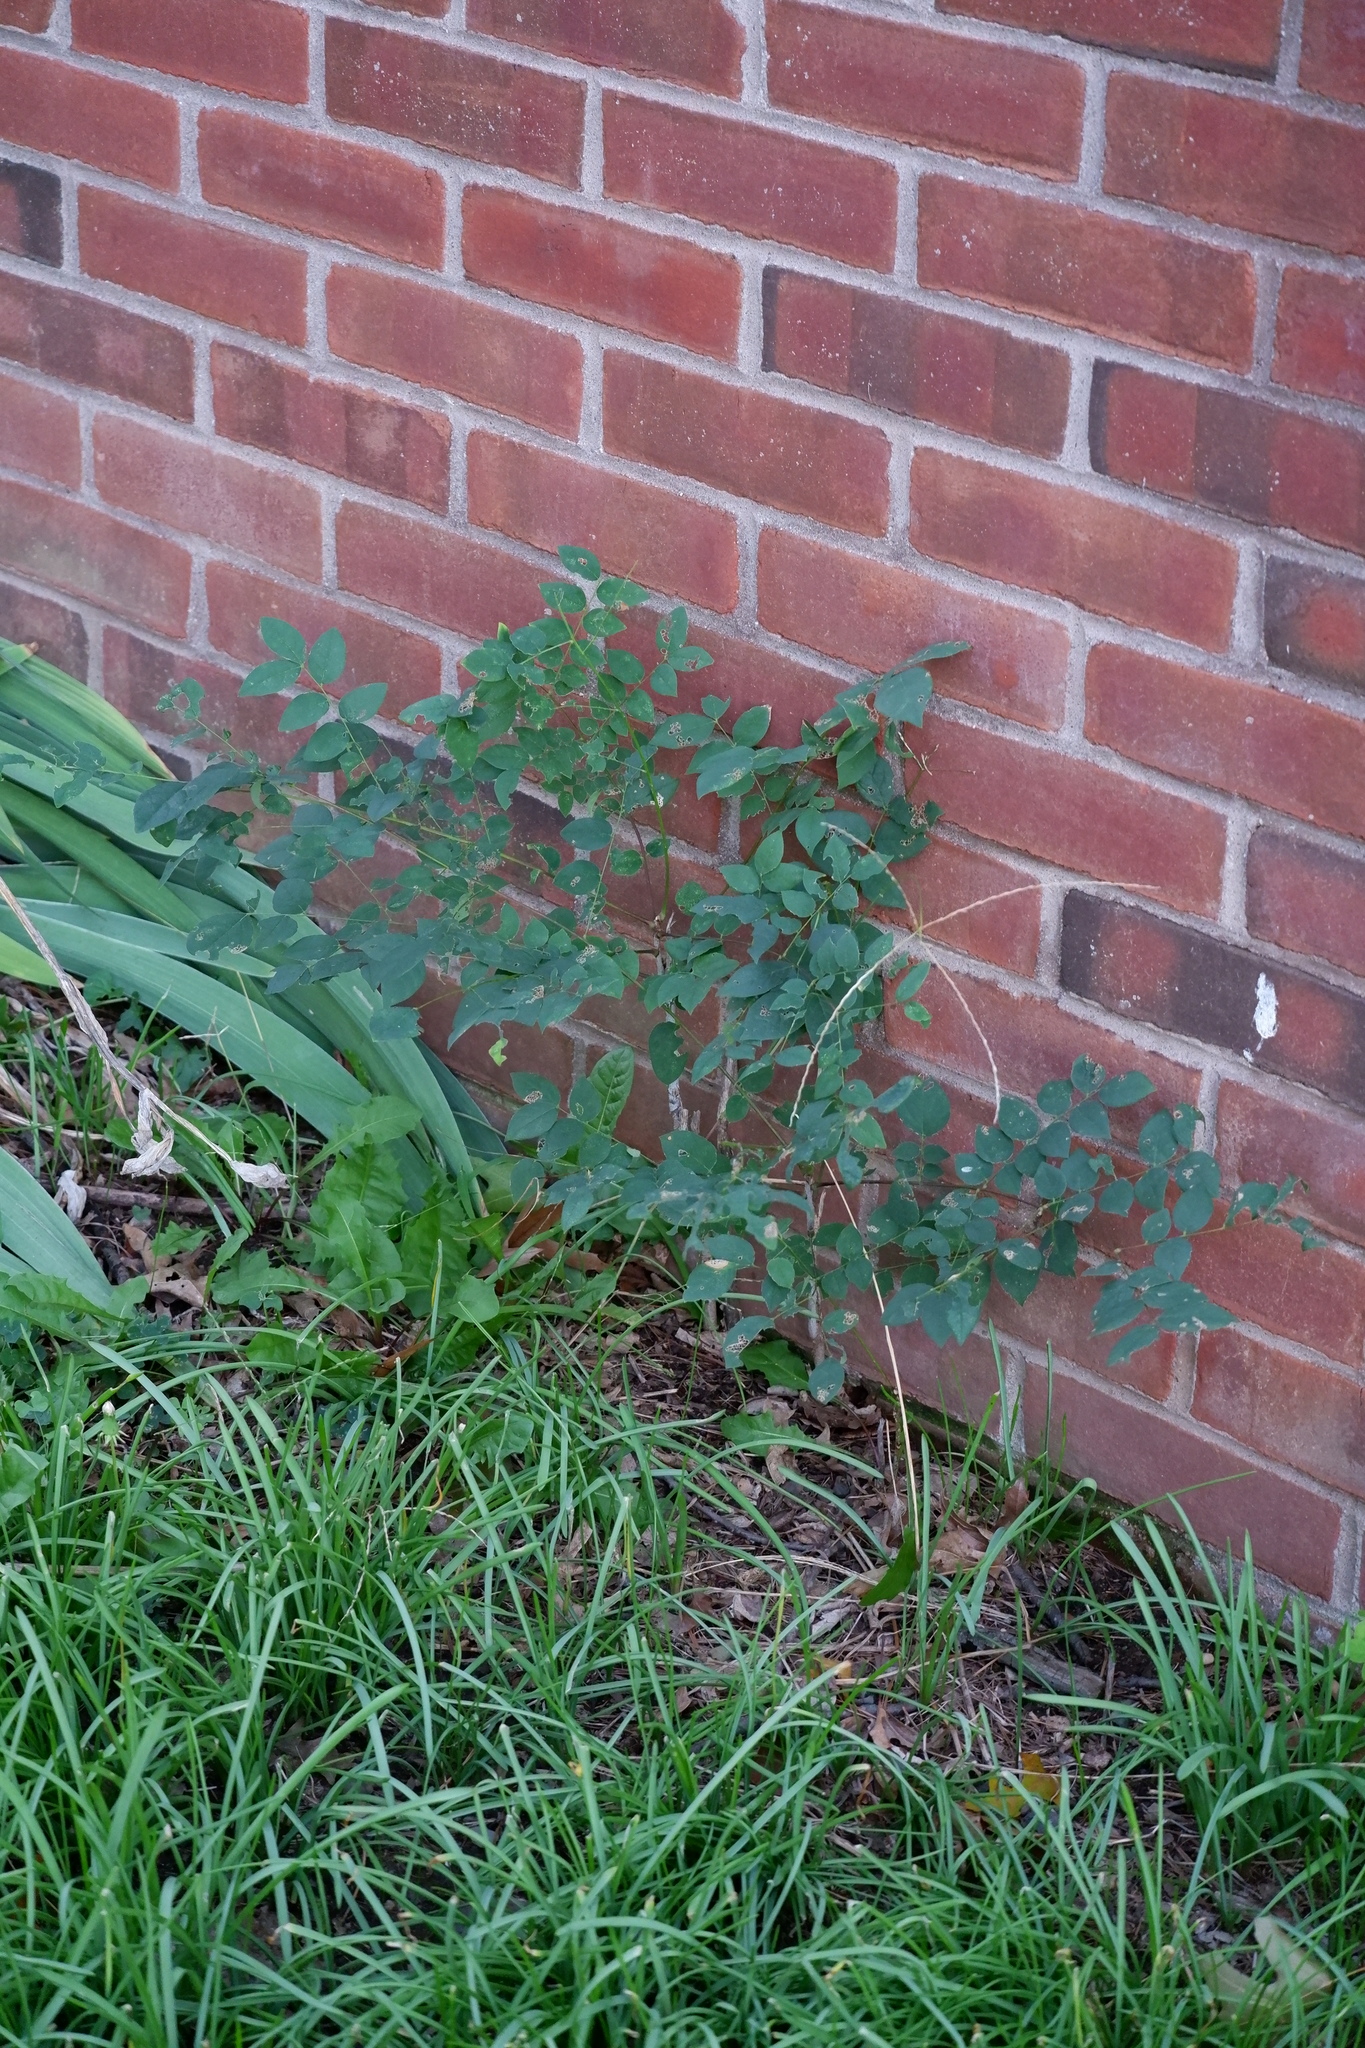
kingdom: Plantae
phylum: Tracheophyta
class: Magnoliopsida
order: Fabales
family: Fabaceae
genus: Gymnocladus
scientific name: Gymnocladus dioicus
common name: Kentucky coffee-tree
